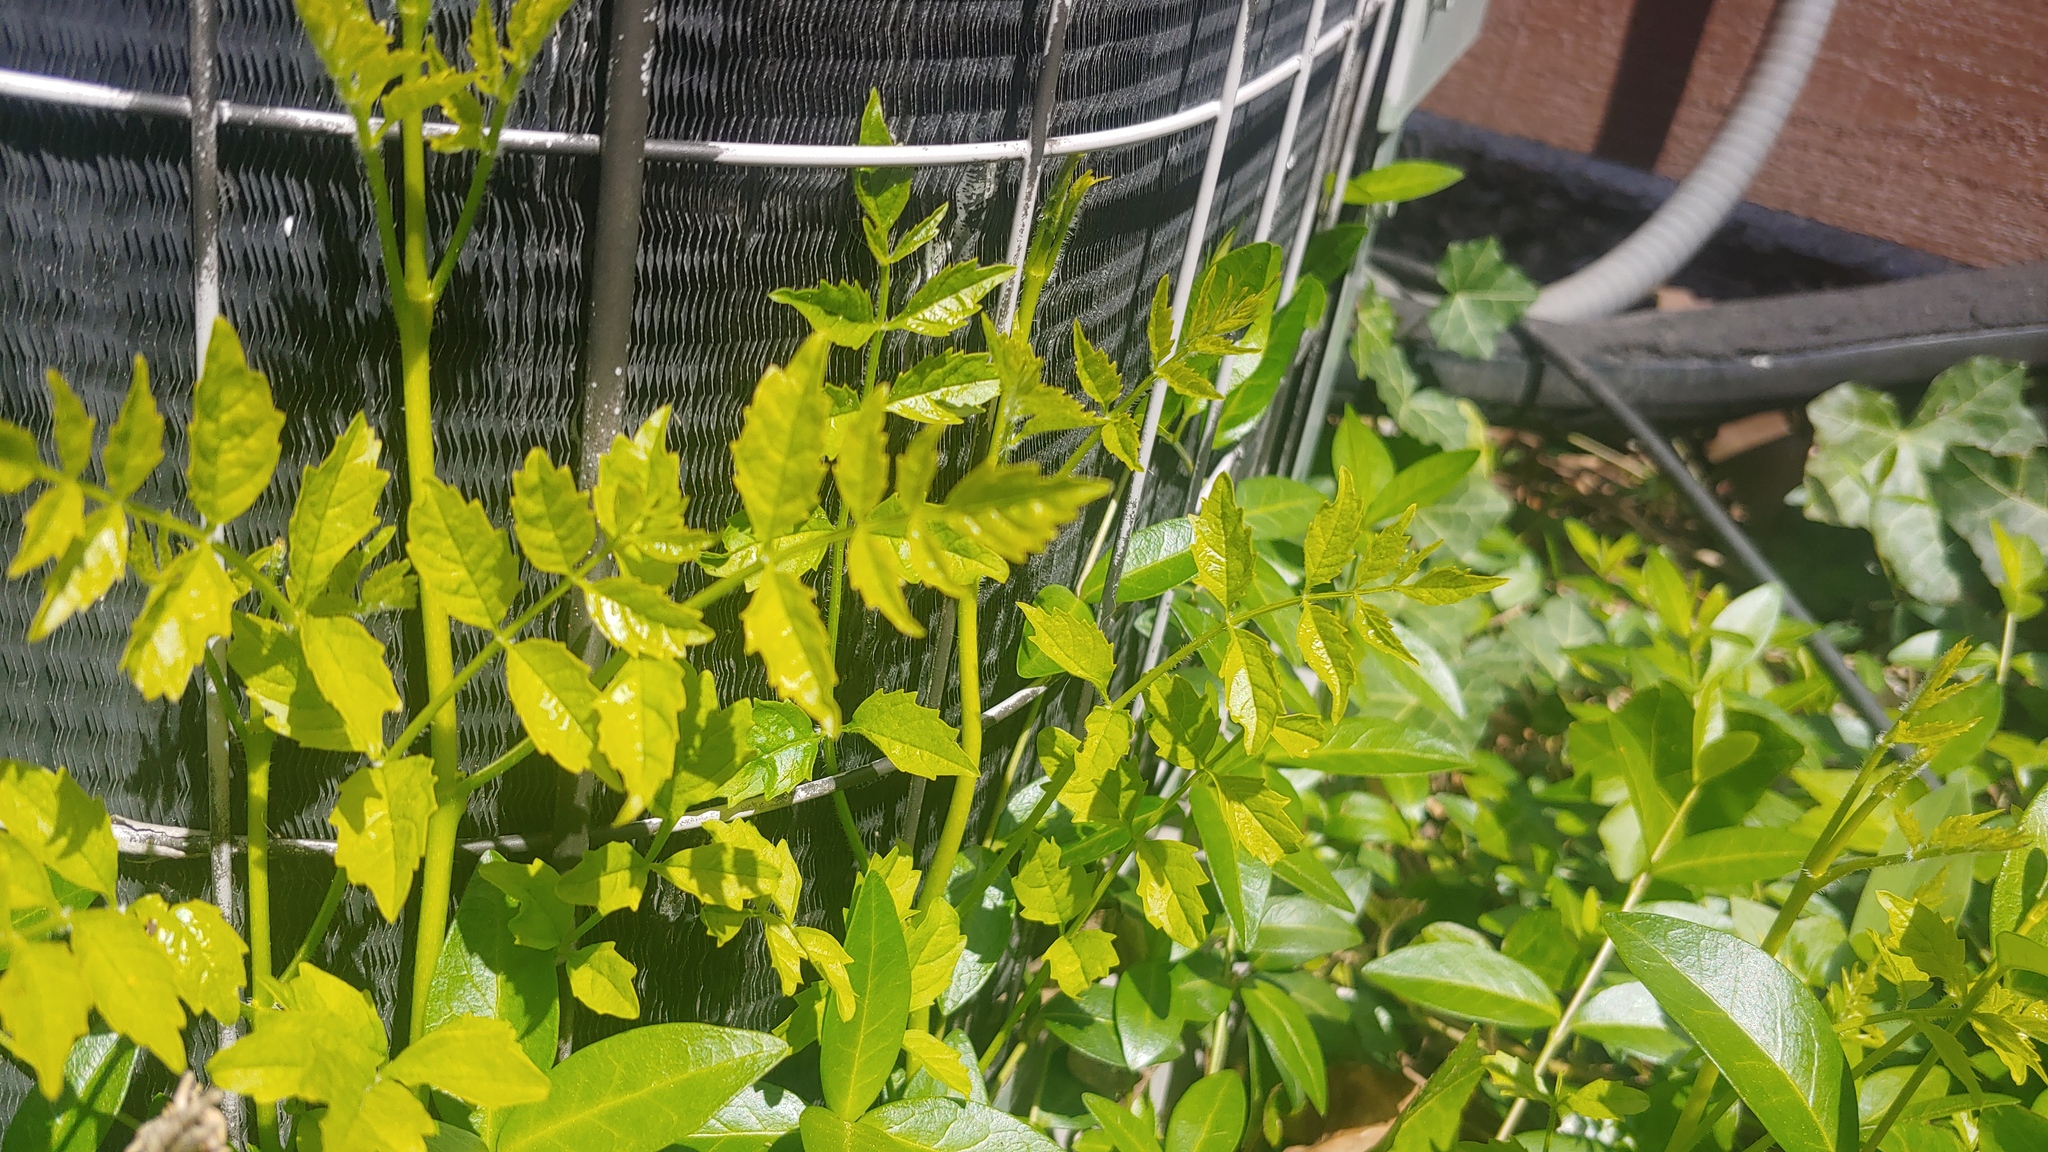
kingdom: Plantae
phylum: Tracheophyta
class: Magnoliopsida
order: Lamiales
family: Bignoniaceae
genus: Campsis
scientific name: Campsis radicans
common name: Trumpet-creeper
